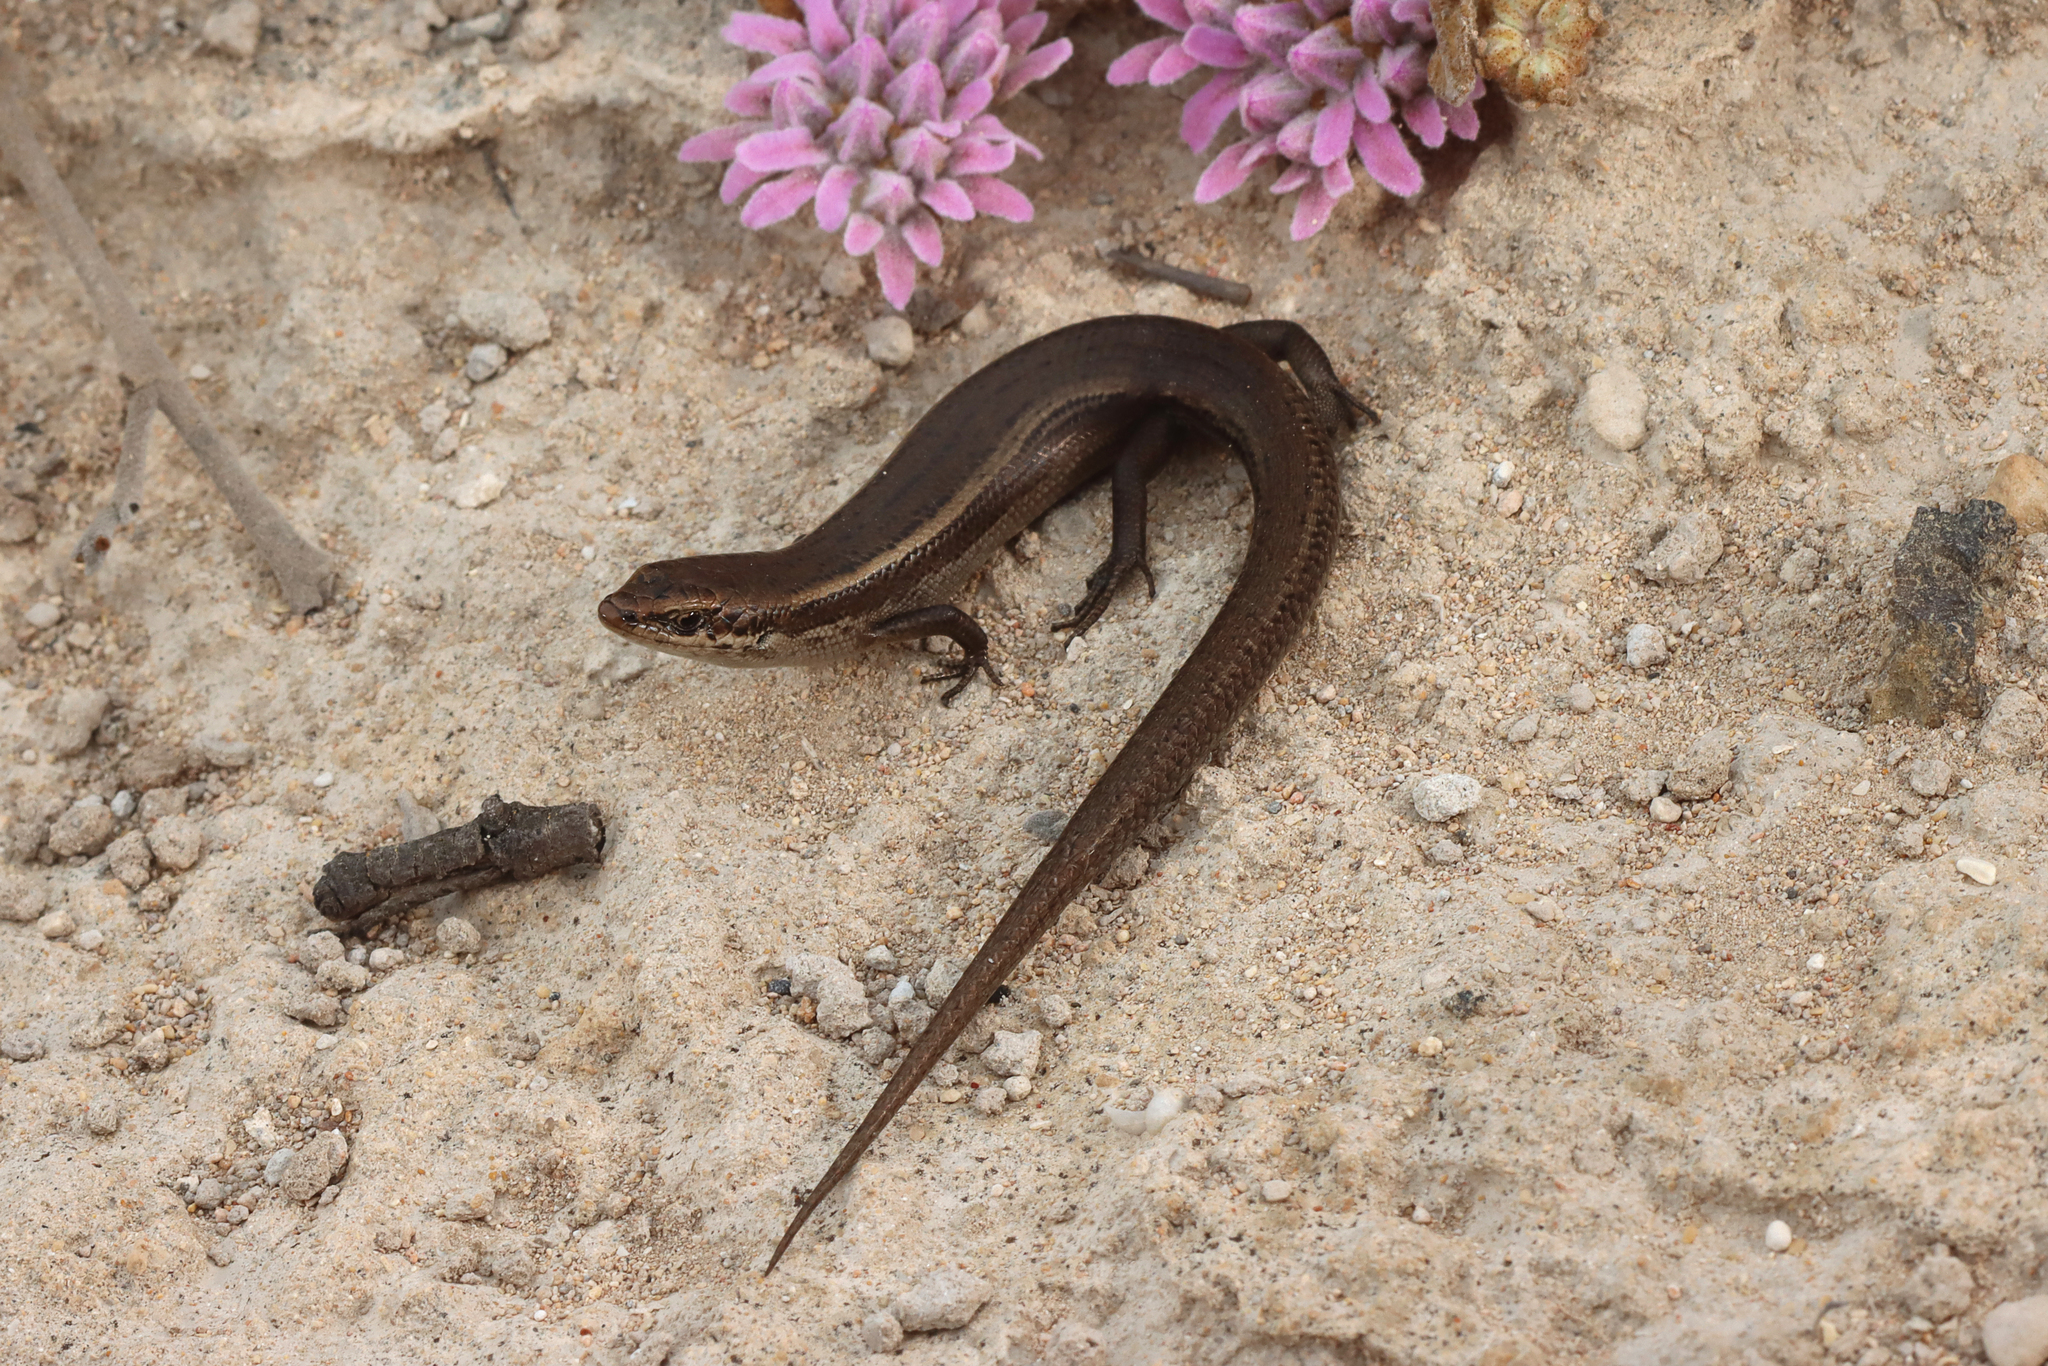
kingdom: Animalia
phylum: Chordata
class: Squamata
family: Scincidae
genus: Acritoscincus
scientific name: Acritoscincus trilineatus
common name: New holland skink
